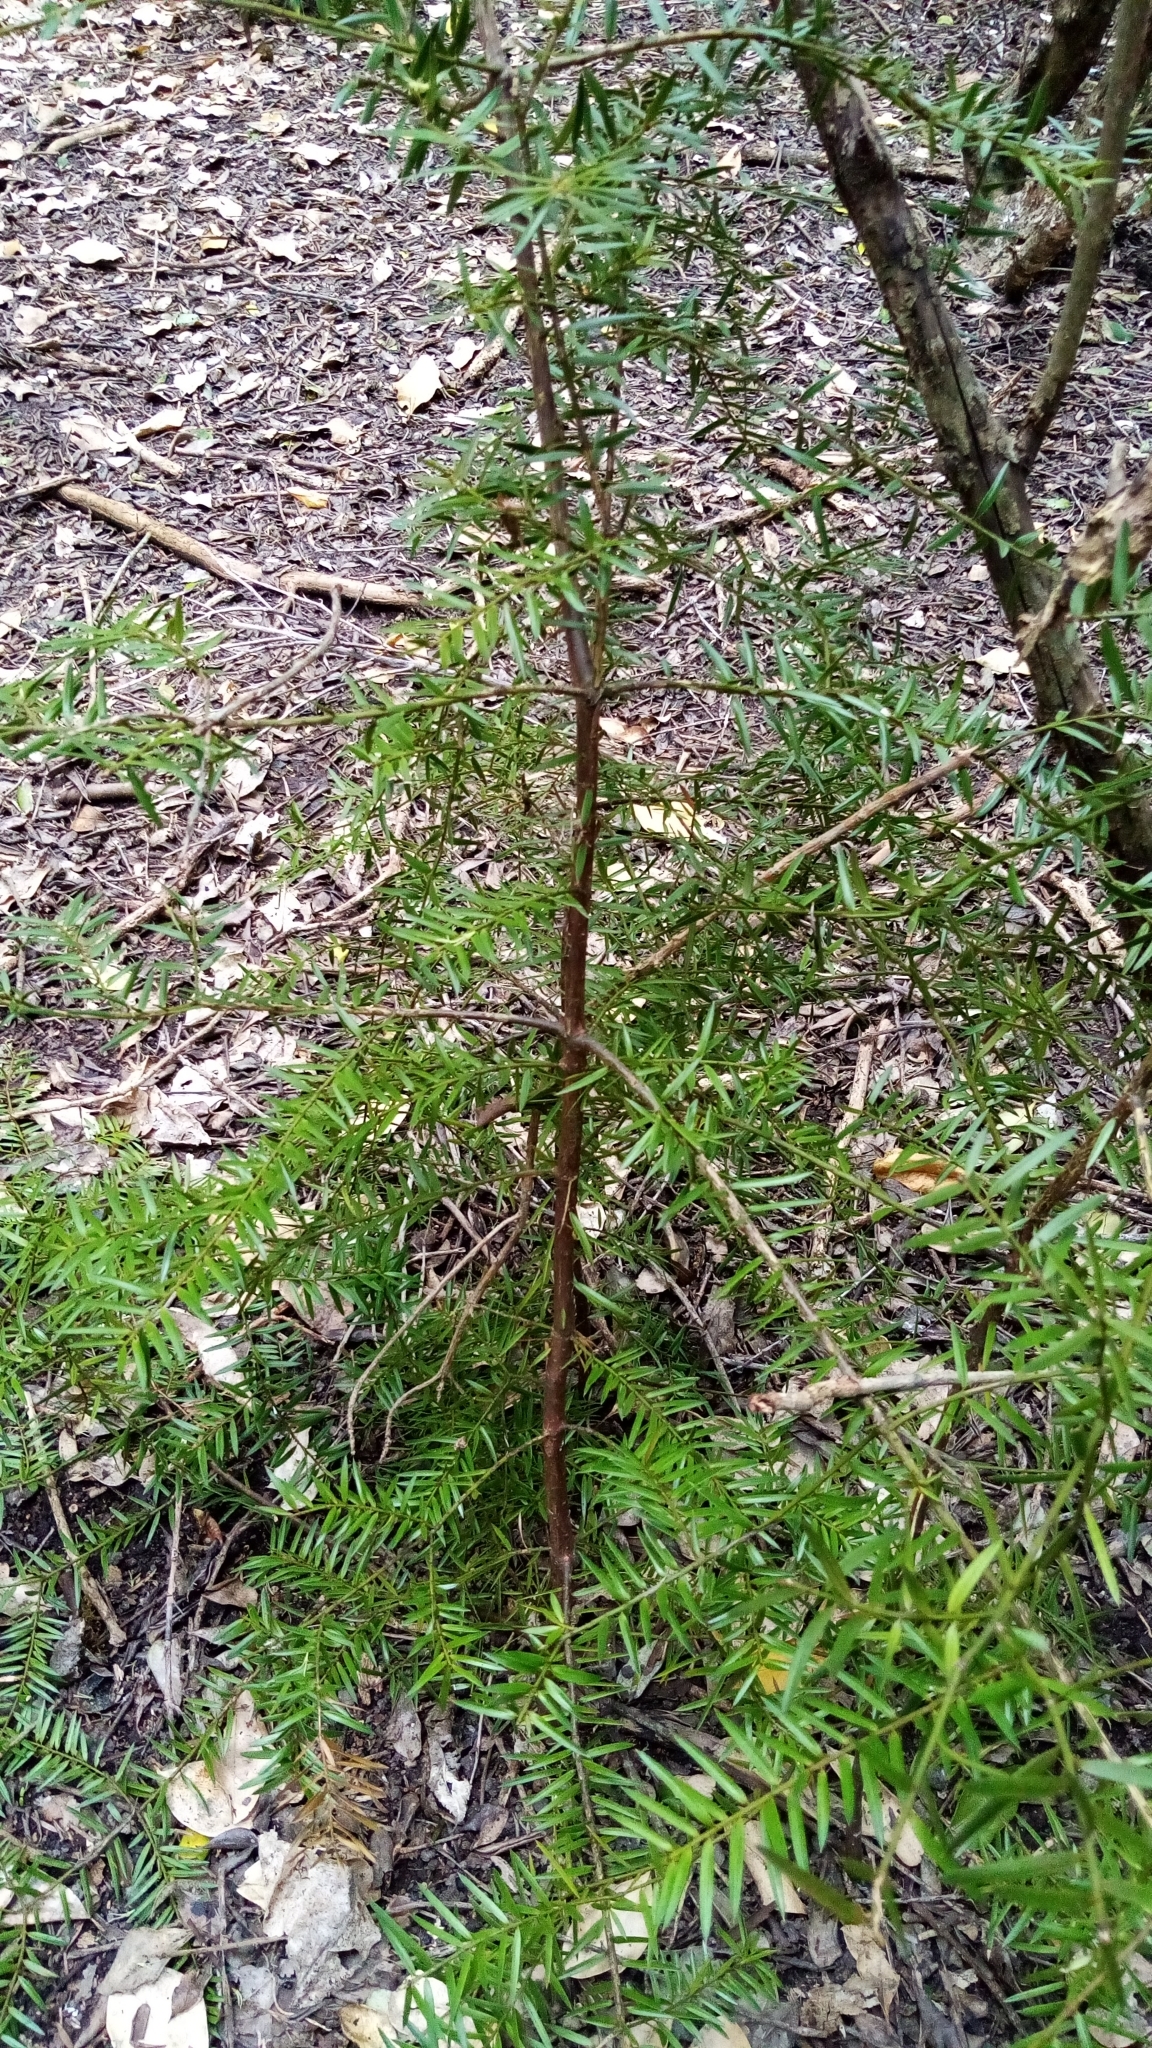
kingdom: Plantae
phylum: Tracheophyta
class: Pinopsida
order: Pinales
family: Podocarpaceae
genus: Podocarpus
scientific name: Podocarpus totara
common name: Totara
